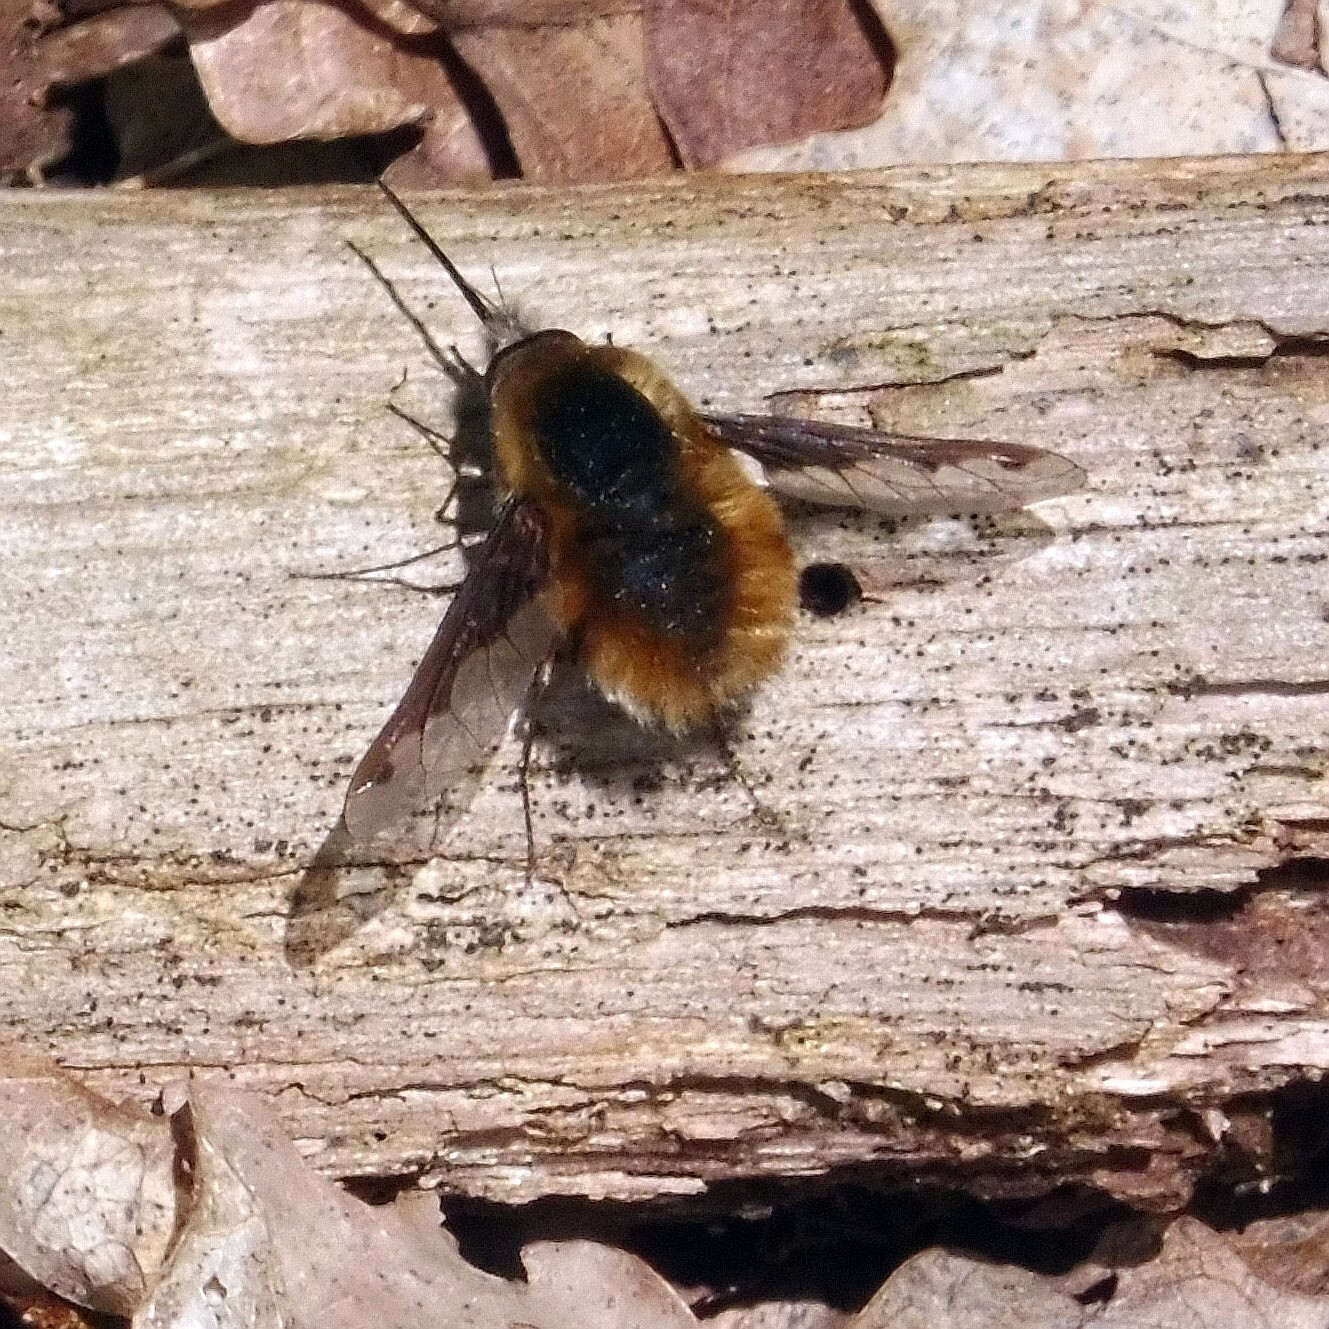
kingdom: Animalia
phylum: Arthropoda
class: Insecta
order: Diptera
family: Bombyliidae
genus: Bombylius
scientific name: Bombylius major
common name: Bee fly
